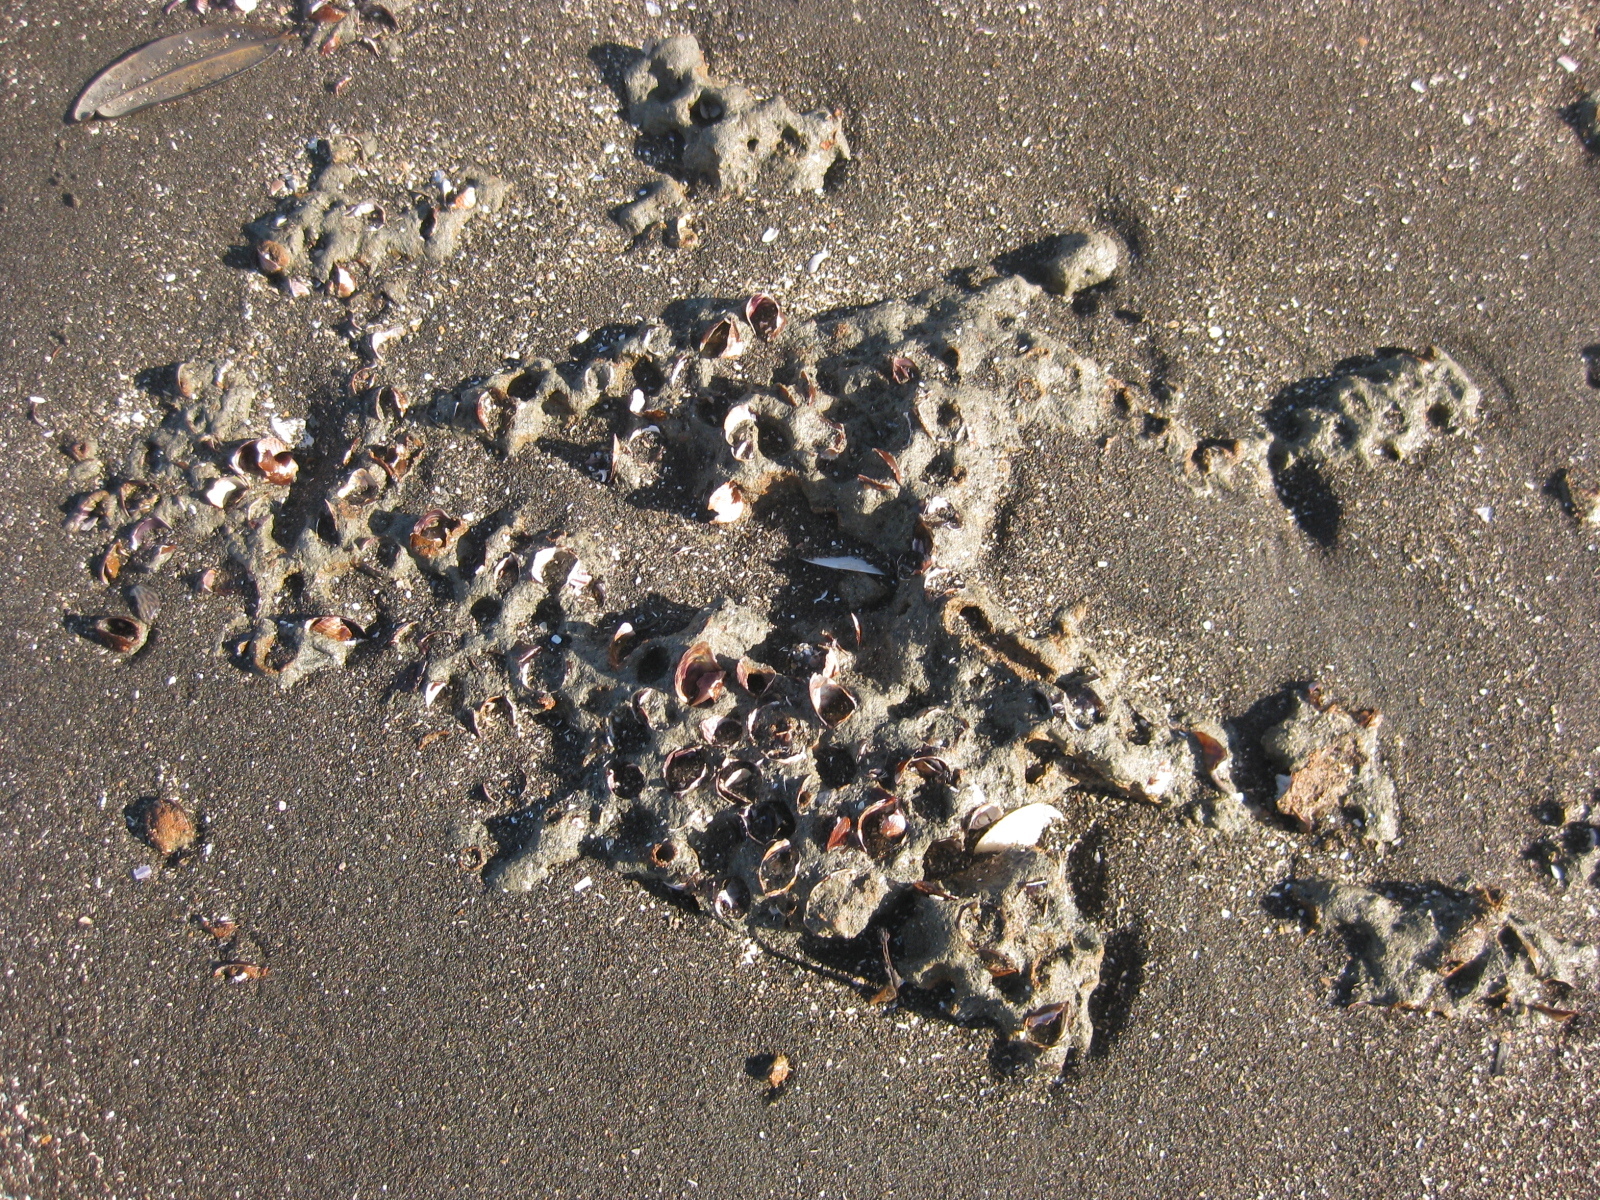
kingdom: Animalia
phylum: Mollusca
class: Bivalvia
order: Mytilida
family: Mytilidae
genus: Arcuatula
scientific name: Arcuatula senhousia
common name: Asian mussel
